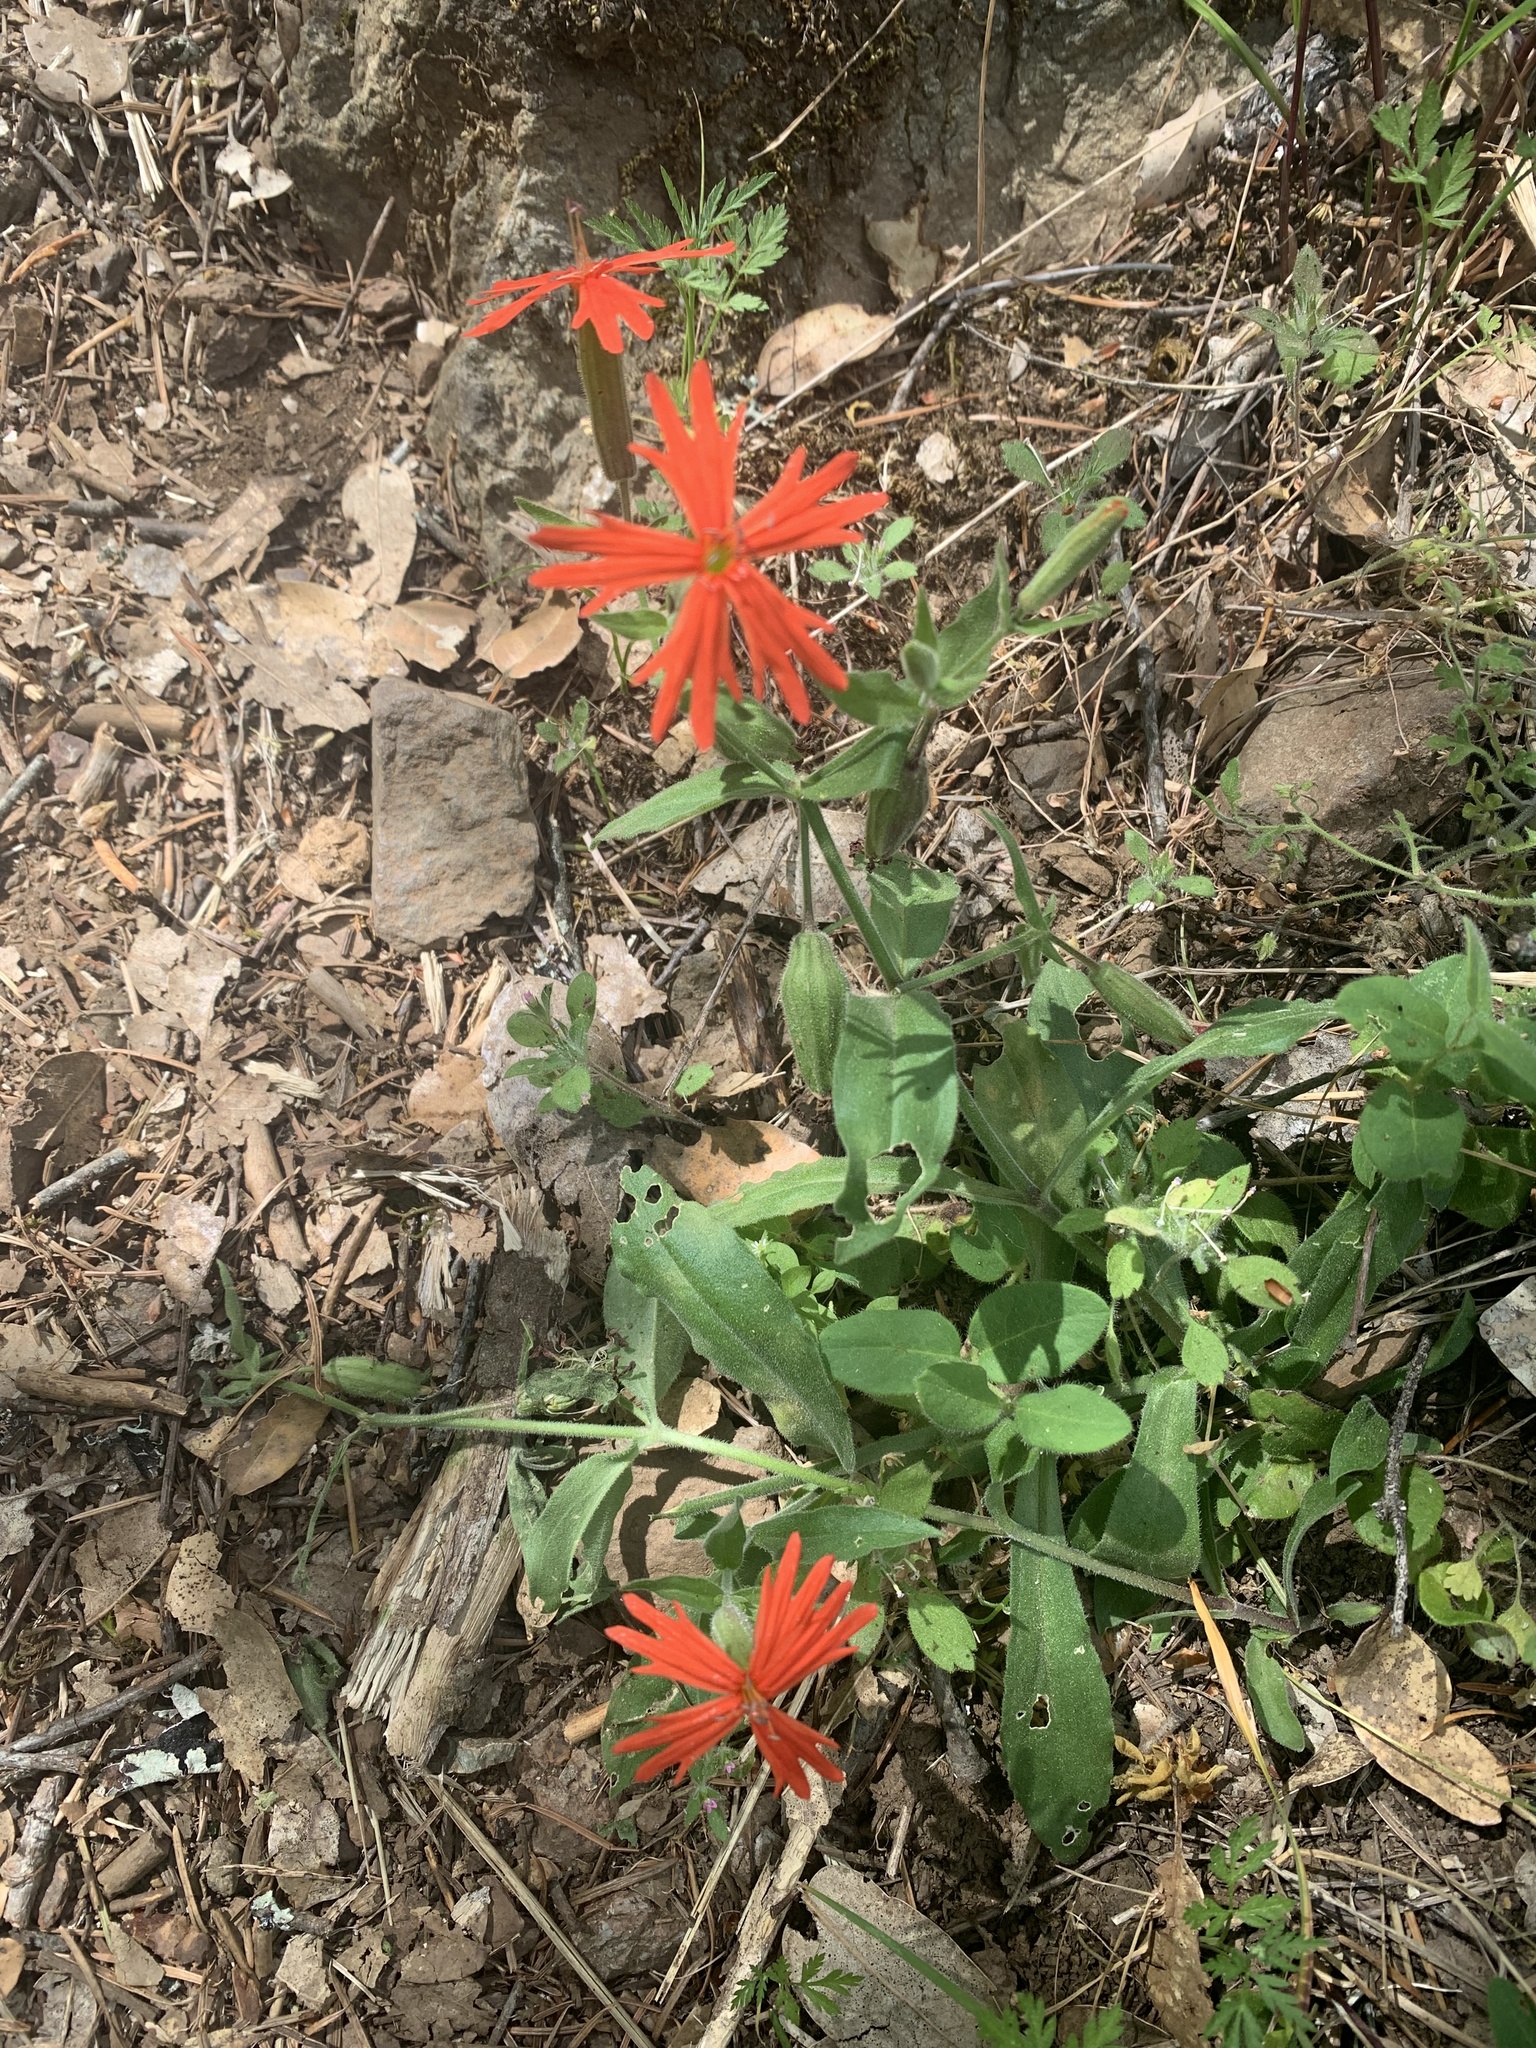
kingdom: Plantae
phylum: Tracheophyta
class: Magnoliopsida
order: Caryophyllales
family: Caryophyllaceae
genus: Silene
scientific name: Silene laciniata
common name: Indian-pink
